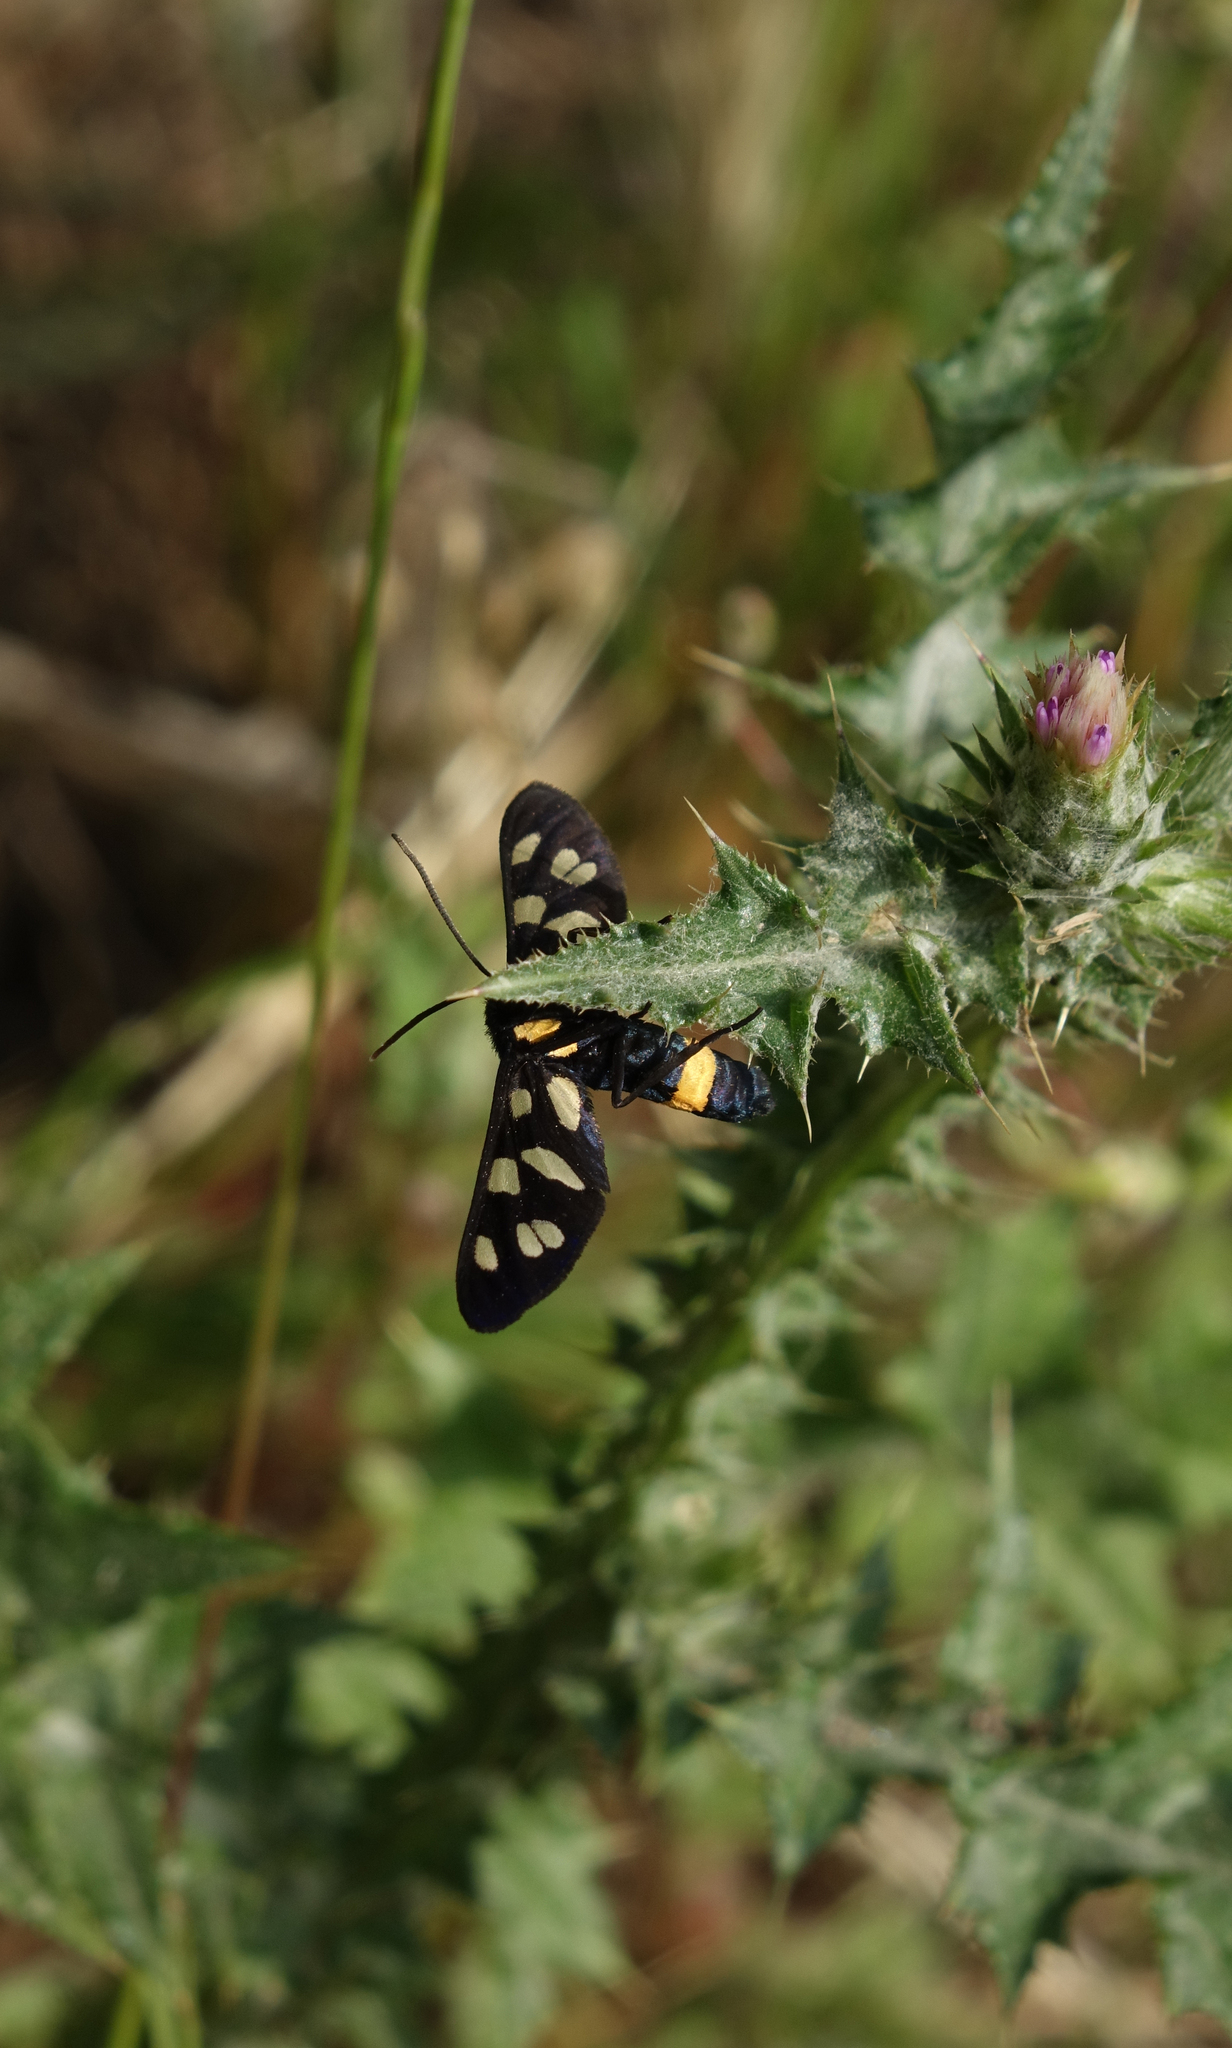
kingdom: Animalia
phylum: Arthropoda
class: Insecta
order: Lepidoptera
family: Erebidae
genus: Amata
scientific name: Amata nigricornis
